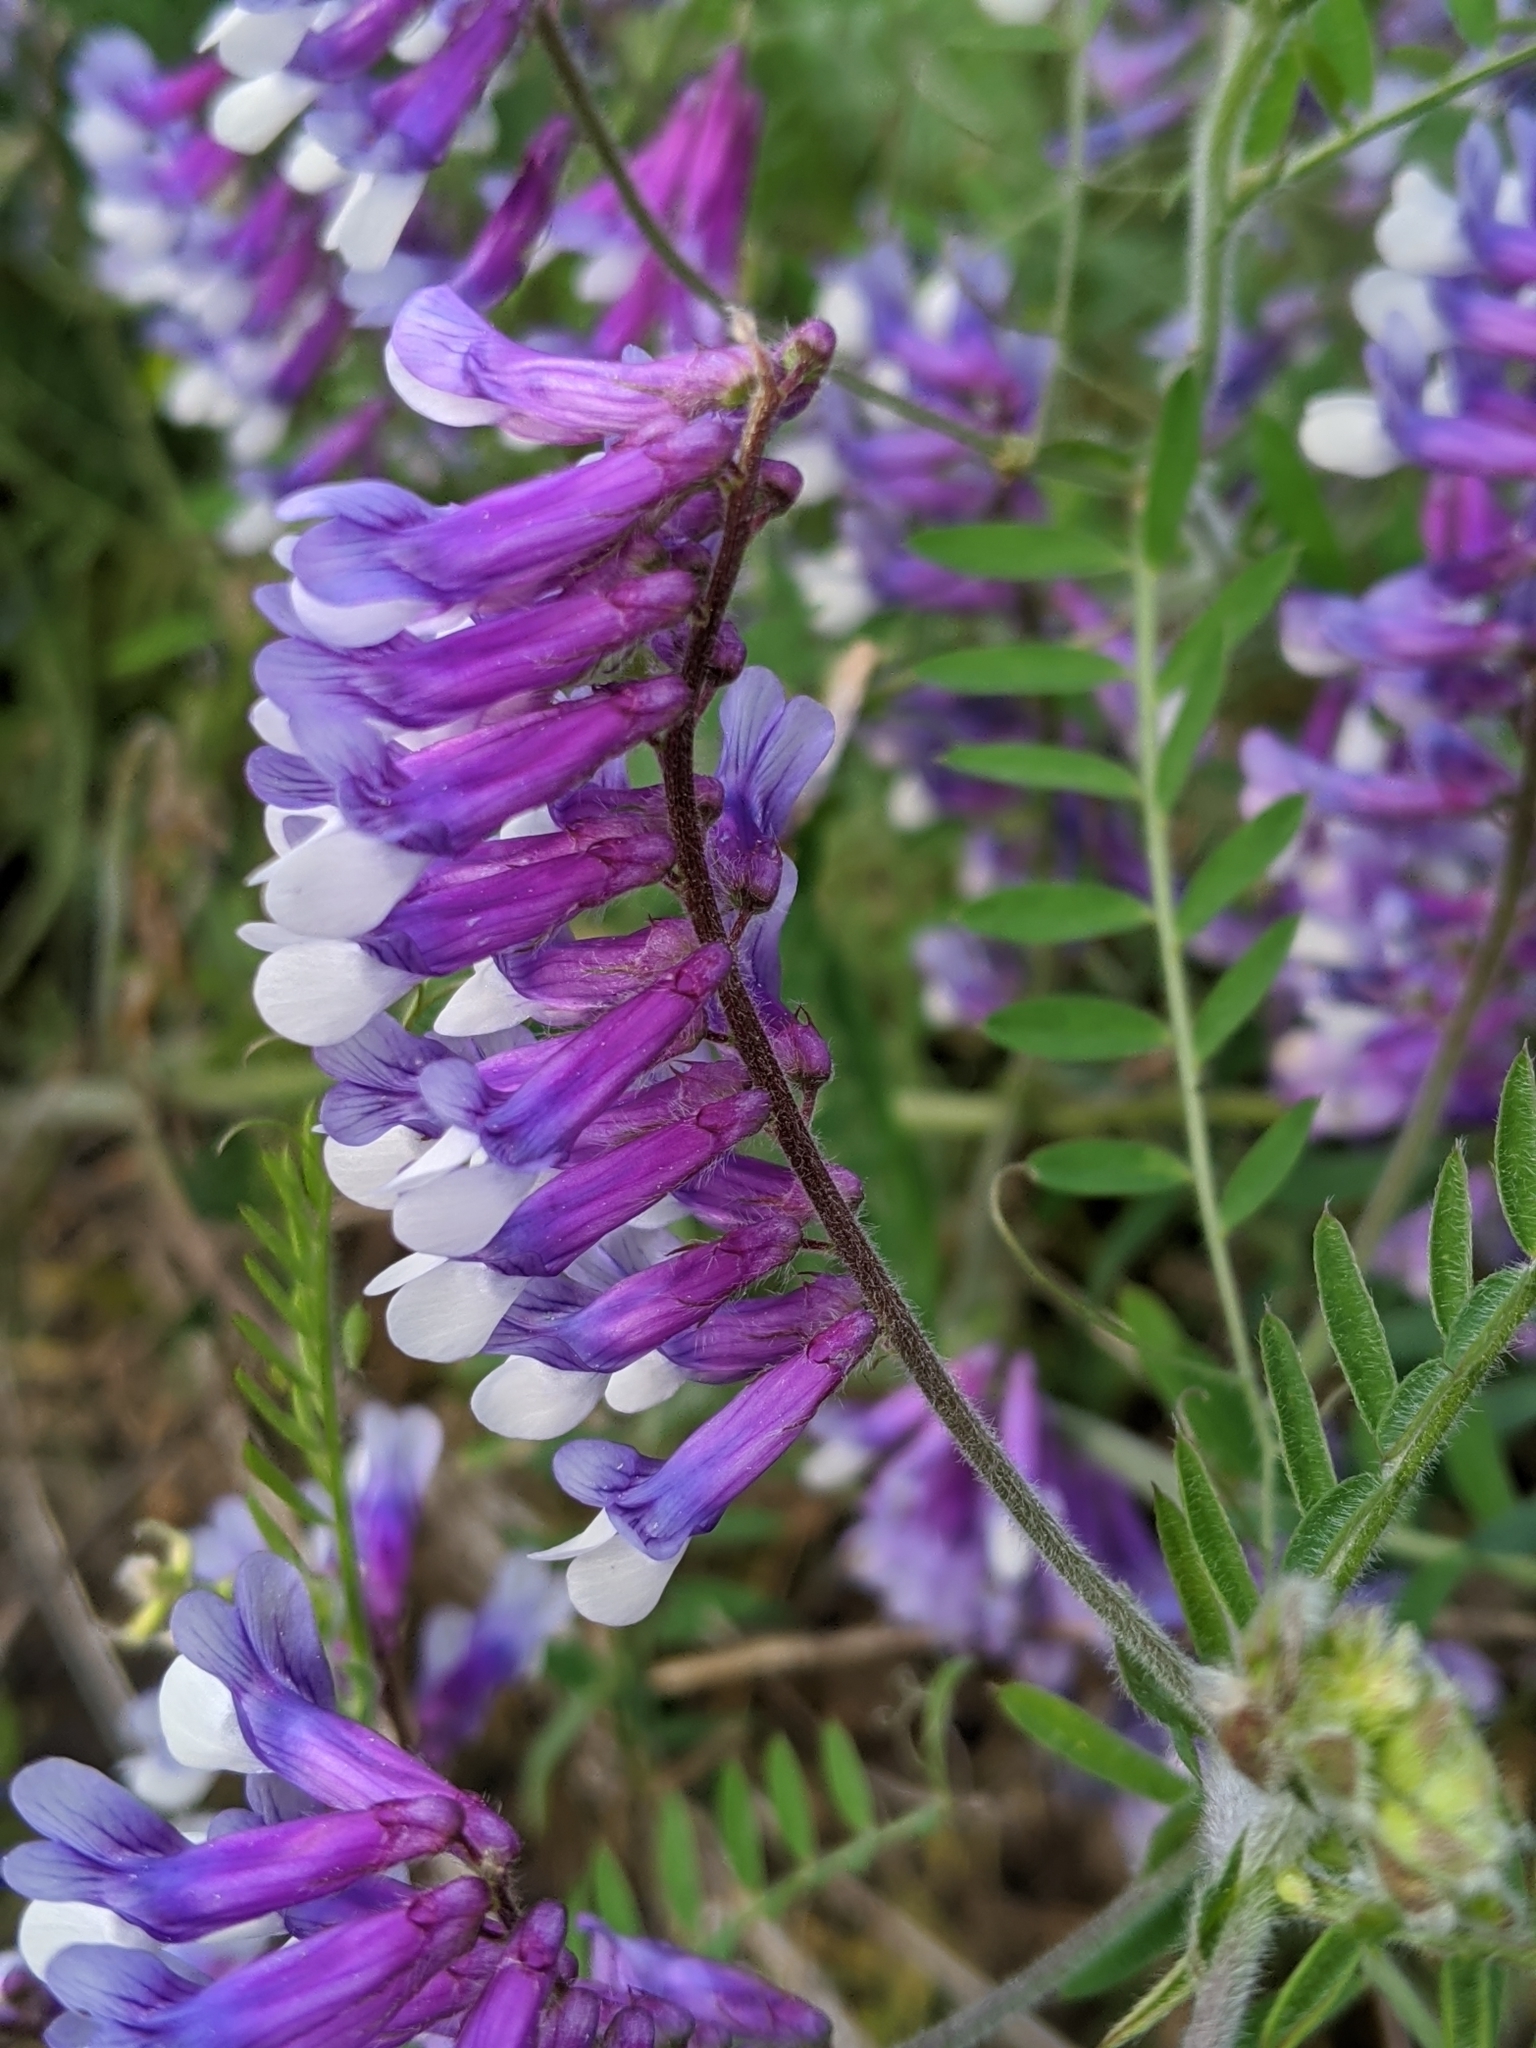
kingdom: Plantae
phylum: Tracheophyta
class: Magnoliopsida
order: Fabales
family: Fabaceae
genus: Vicia
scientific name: Vicia villosa
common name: Fodder vetch
